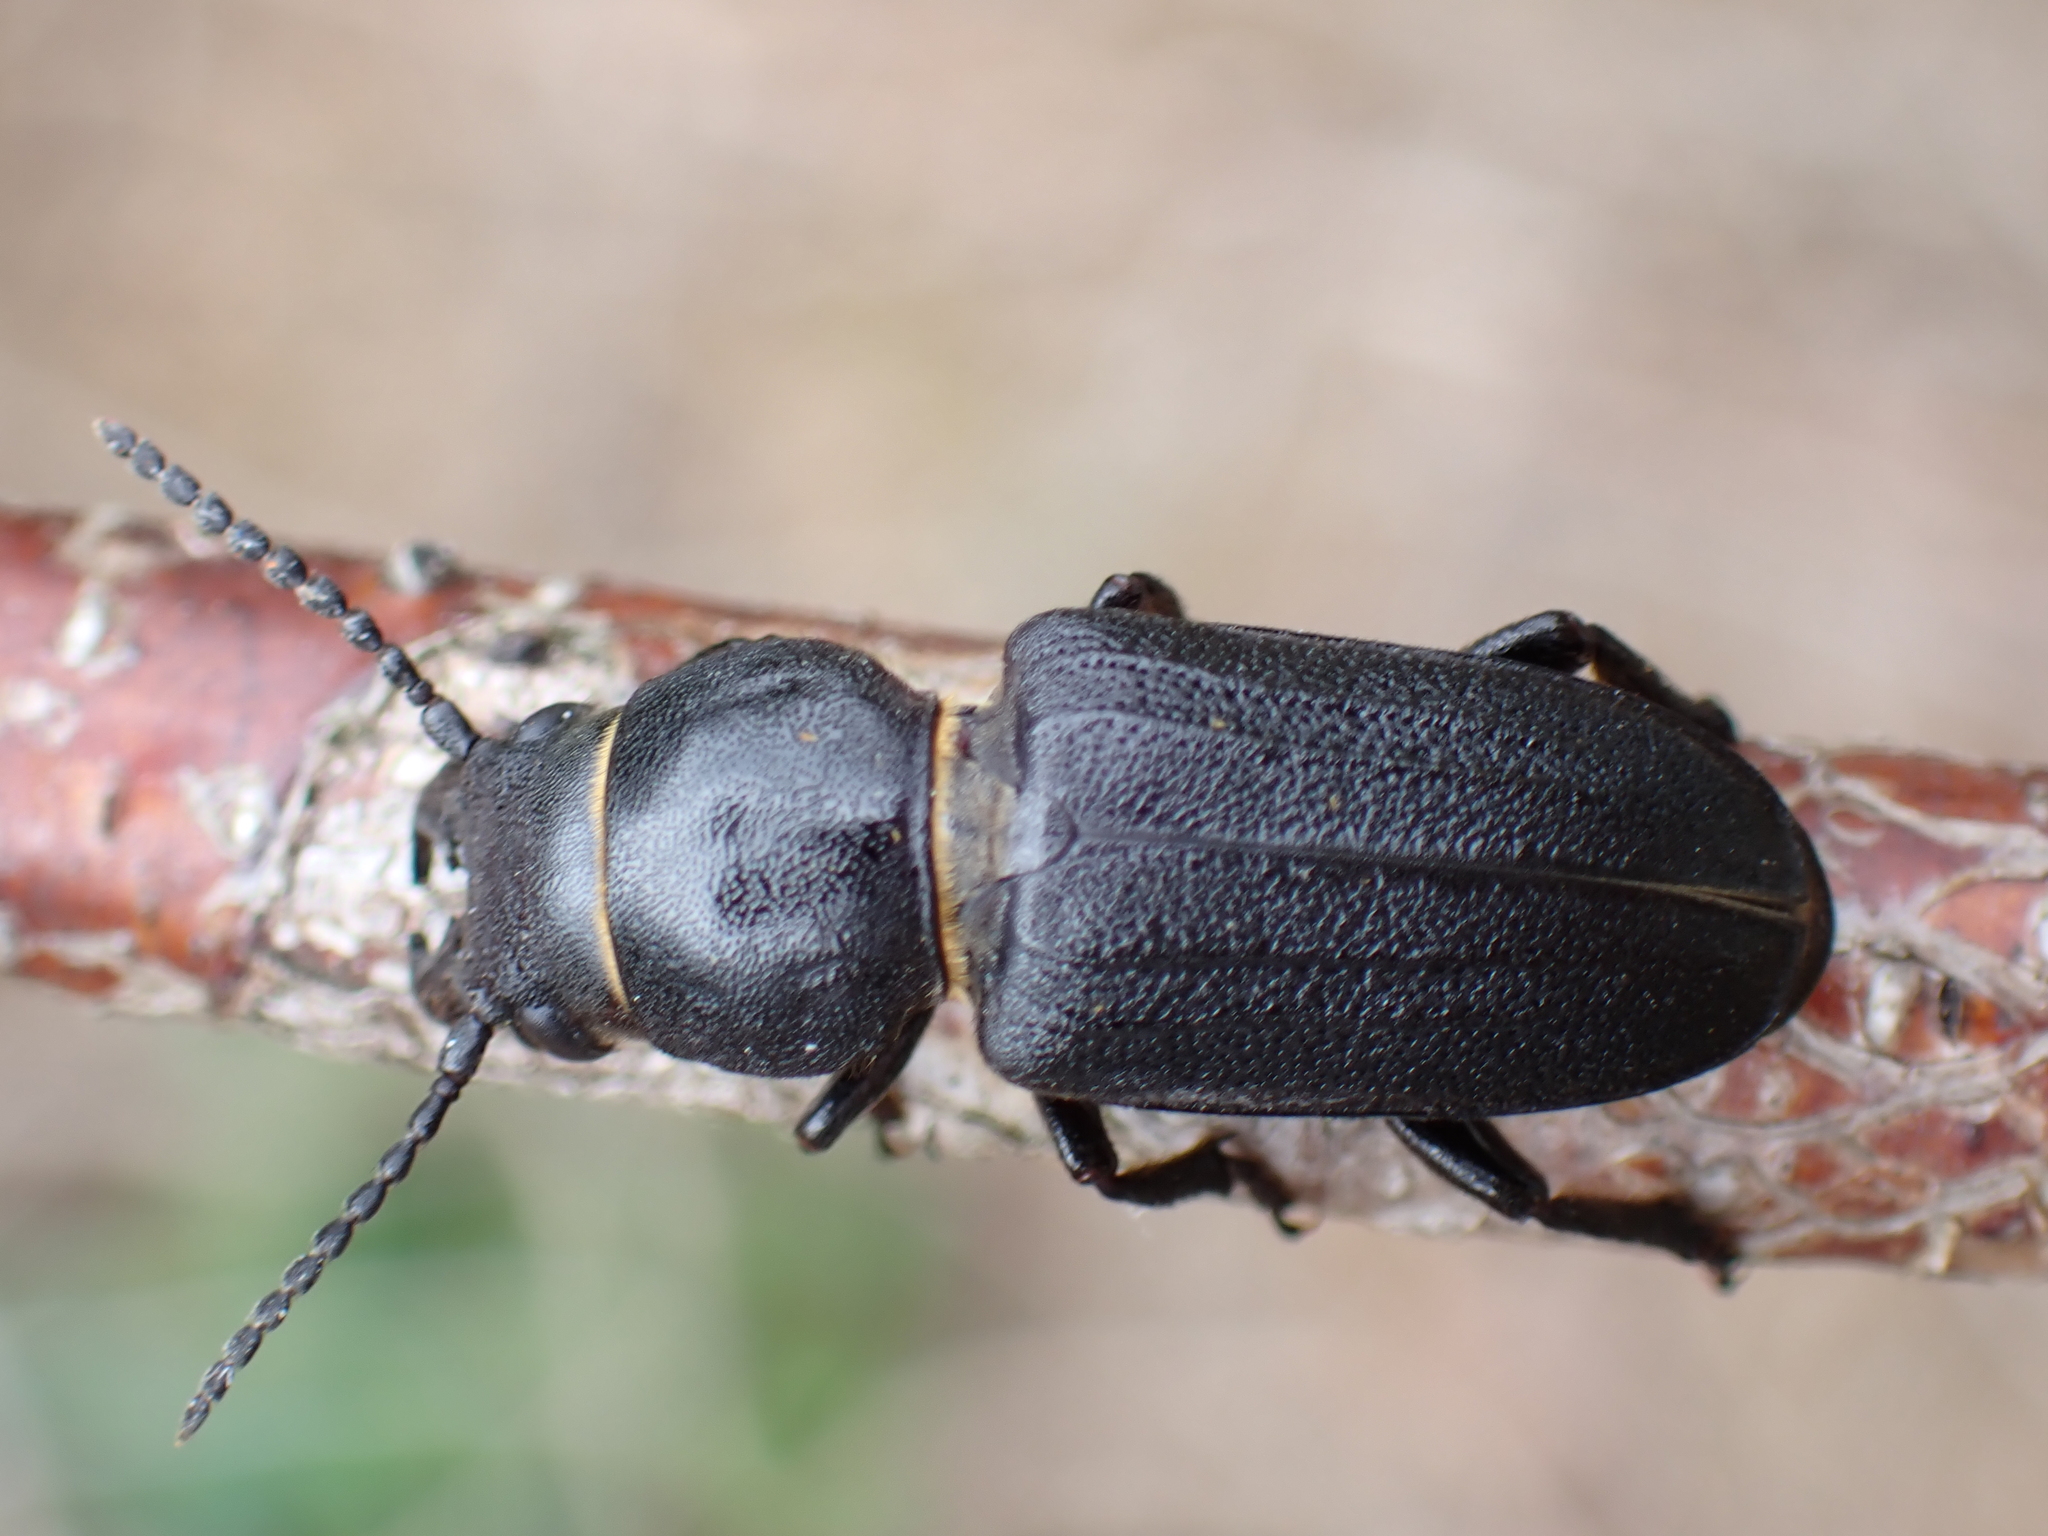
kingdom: Animalia
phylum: Arthropoda
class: Insecta
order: Coleoptera
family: Cerambycidae
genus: Spondylis
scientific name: Spondylis buprestoides
